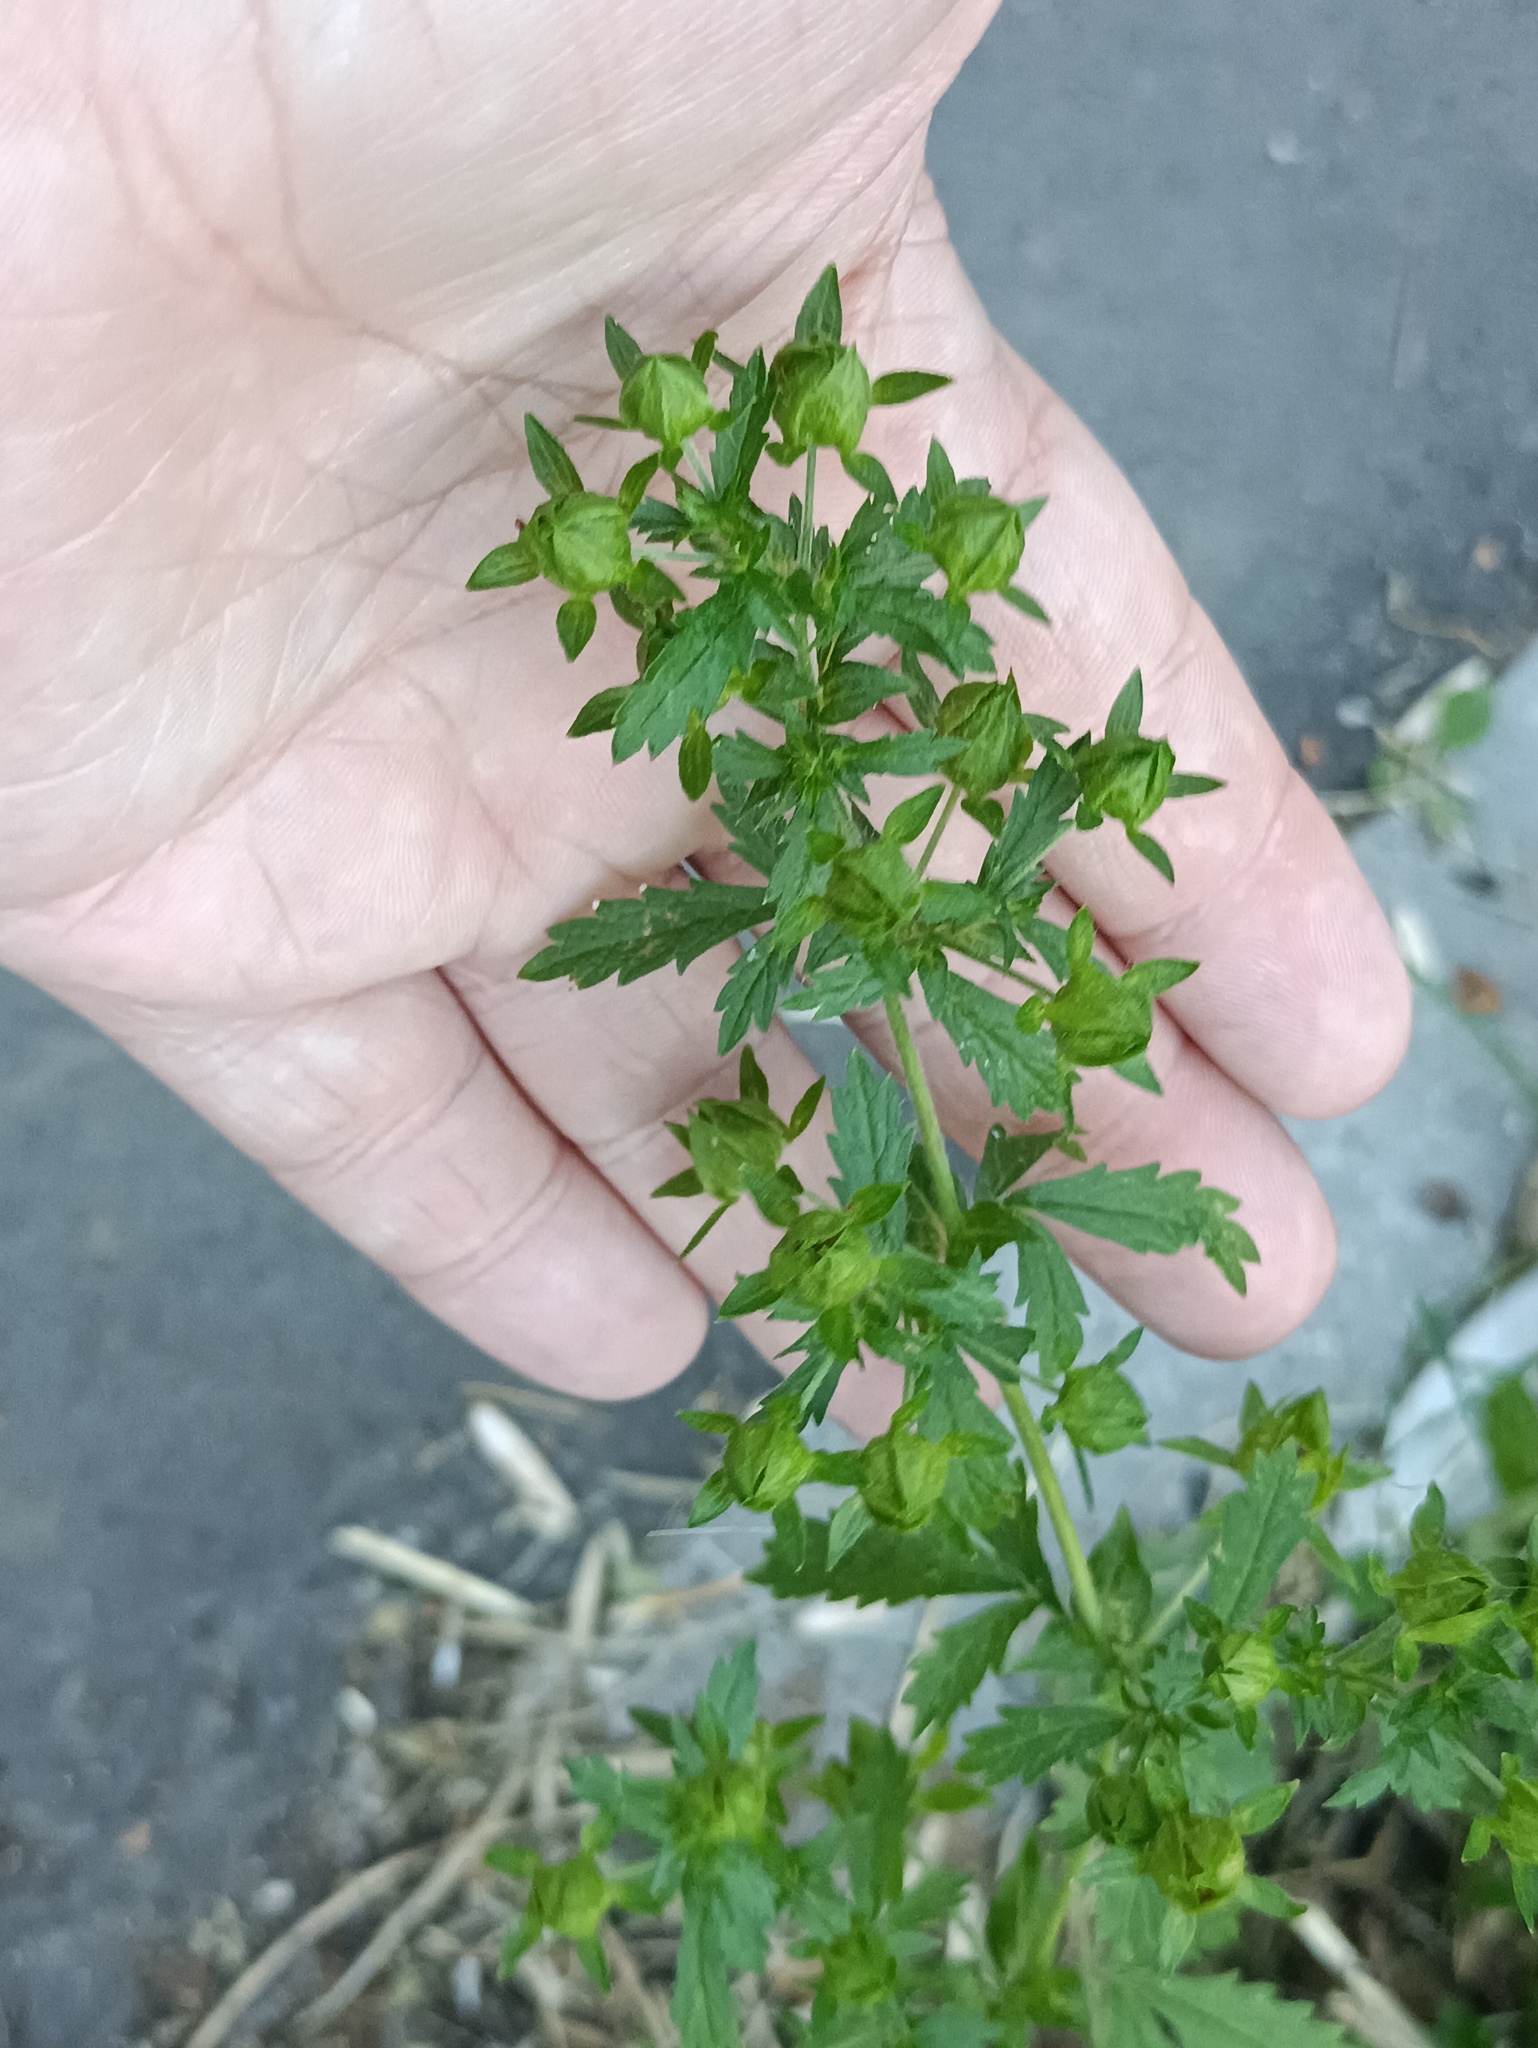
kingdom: Plantae
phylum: Tracheophyta
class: Magnoliopsida
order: Rosales
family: Rosaceae
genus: Potentilla
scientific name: Potentilla norvegica
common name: Ternate-leaved cinquefoil
